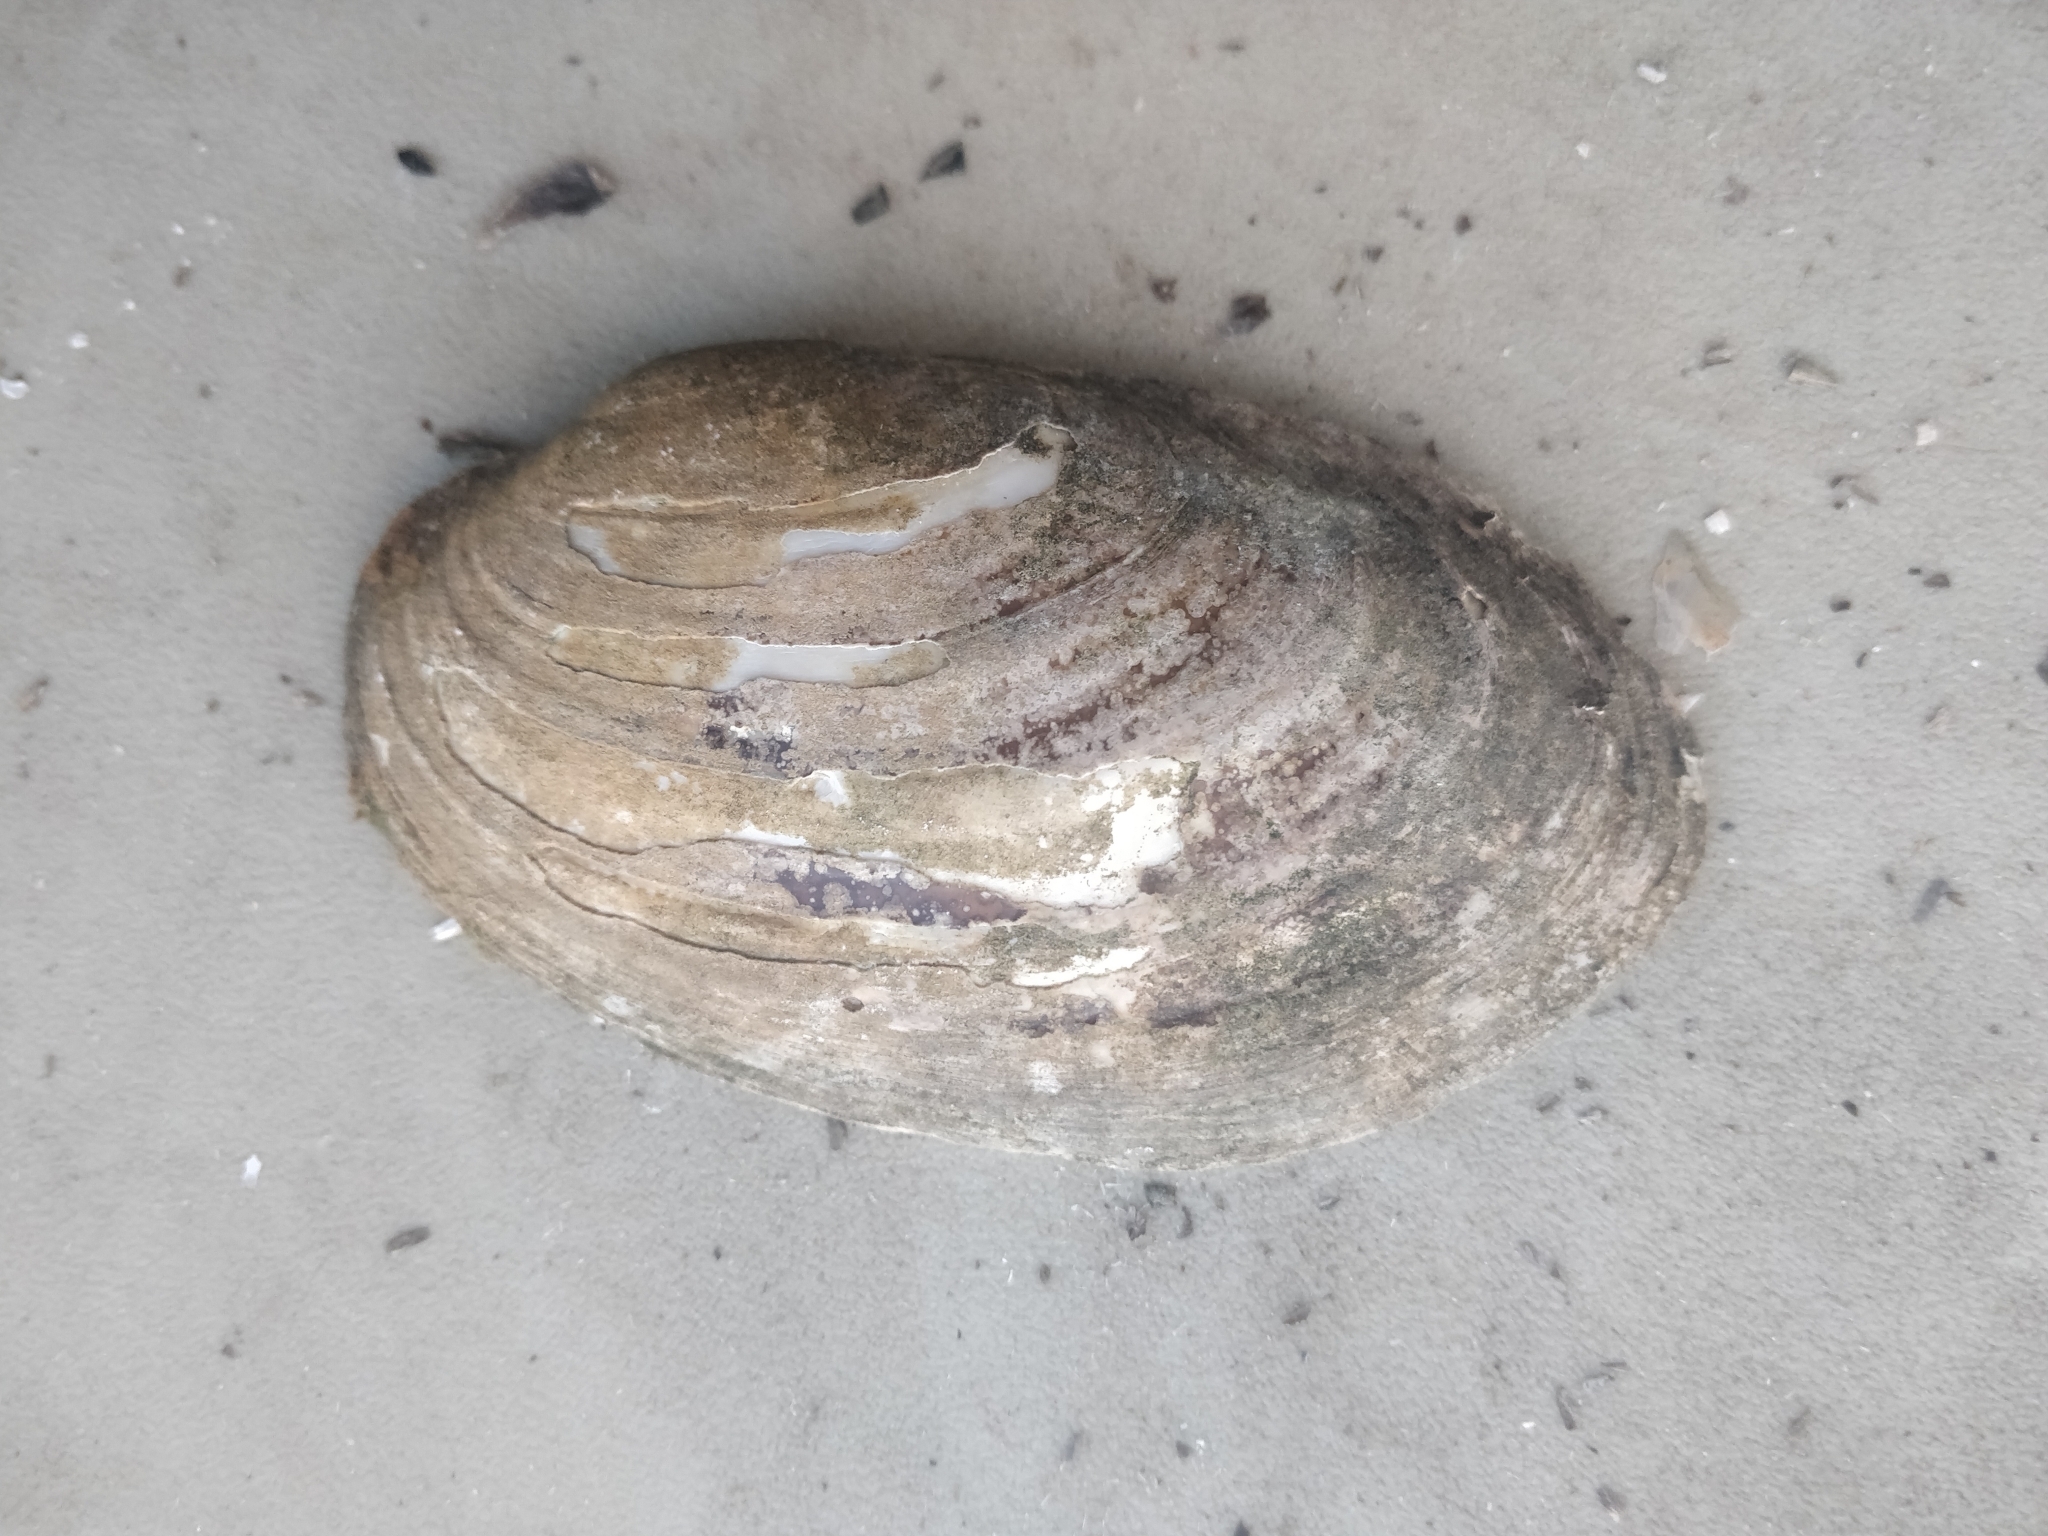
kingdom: Animalia
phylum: Mollusca
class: Bivalvia
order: Unionida
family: Unionidae
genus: Lampsilis
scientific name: Lampsilis siliquoidea
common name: Fatmucket
